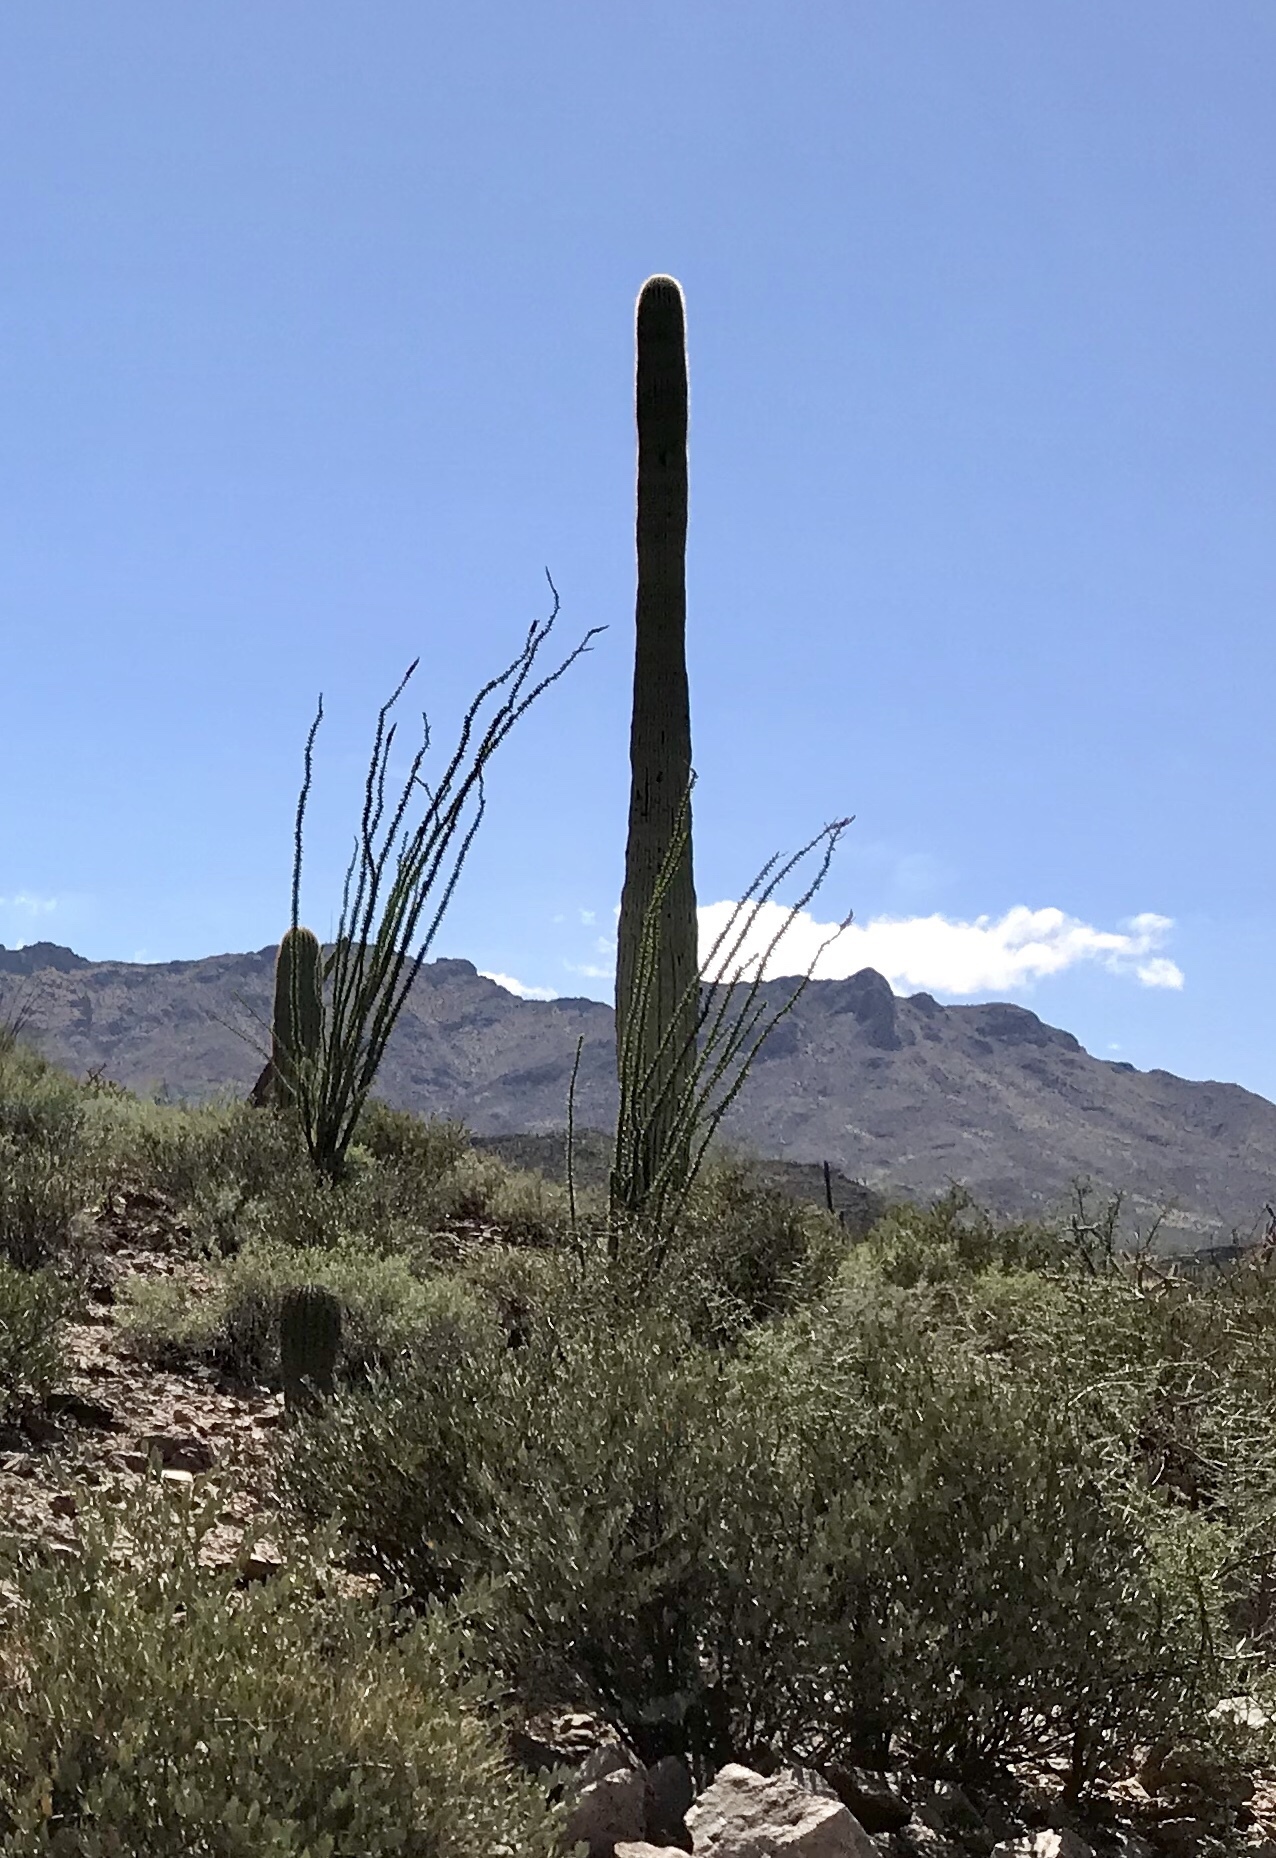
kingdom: Plantae
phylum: Tracheophyta
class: Magnoliopsida
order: Caryophyllales
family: Cactaceae
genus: Carnegiea
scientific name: Carnegiea gigantea
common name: Saguaro
